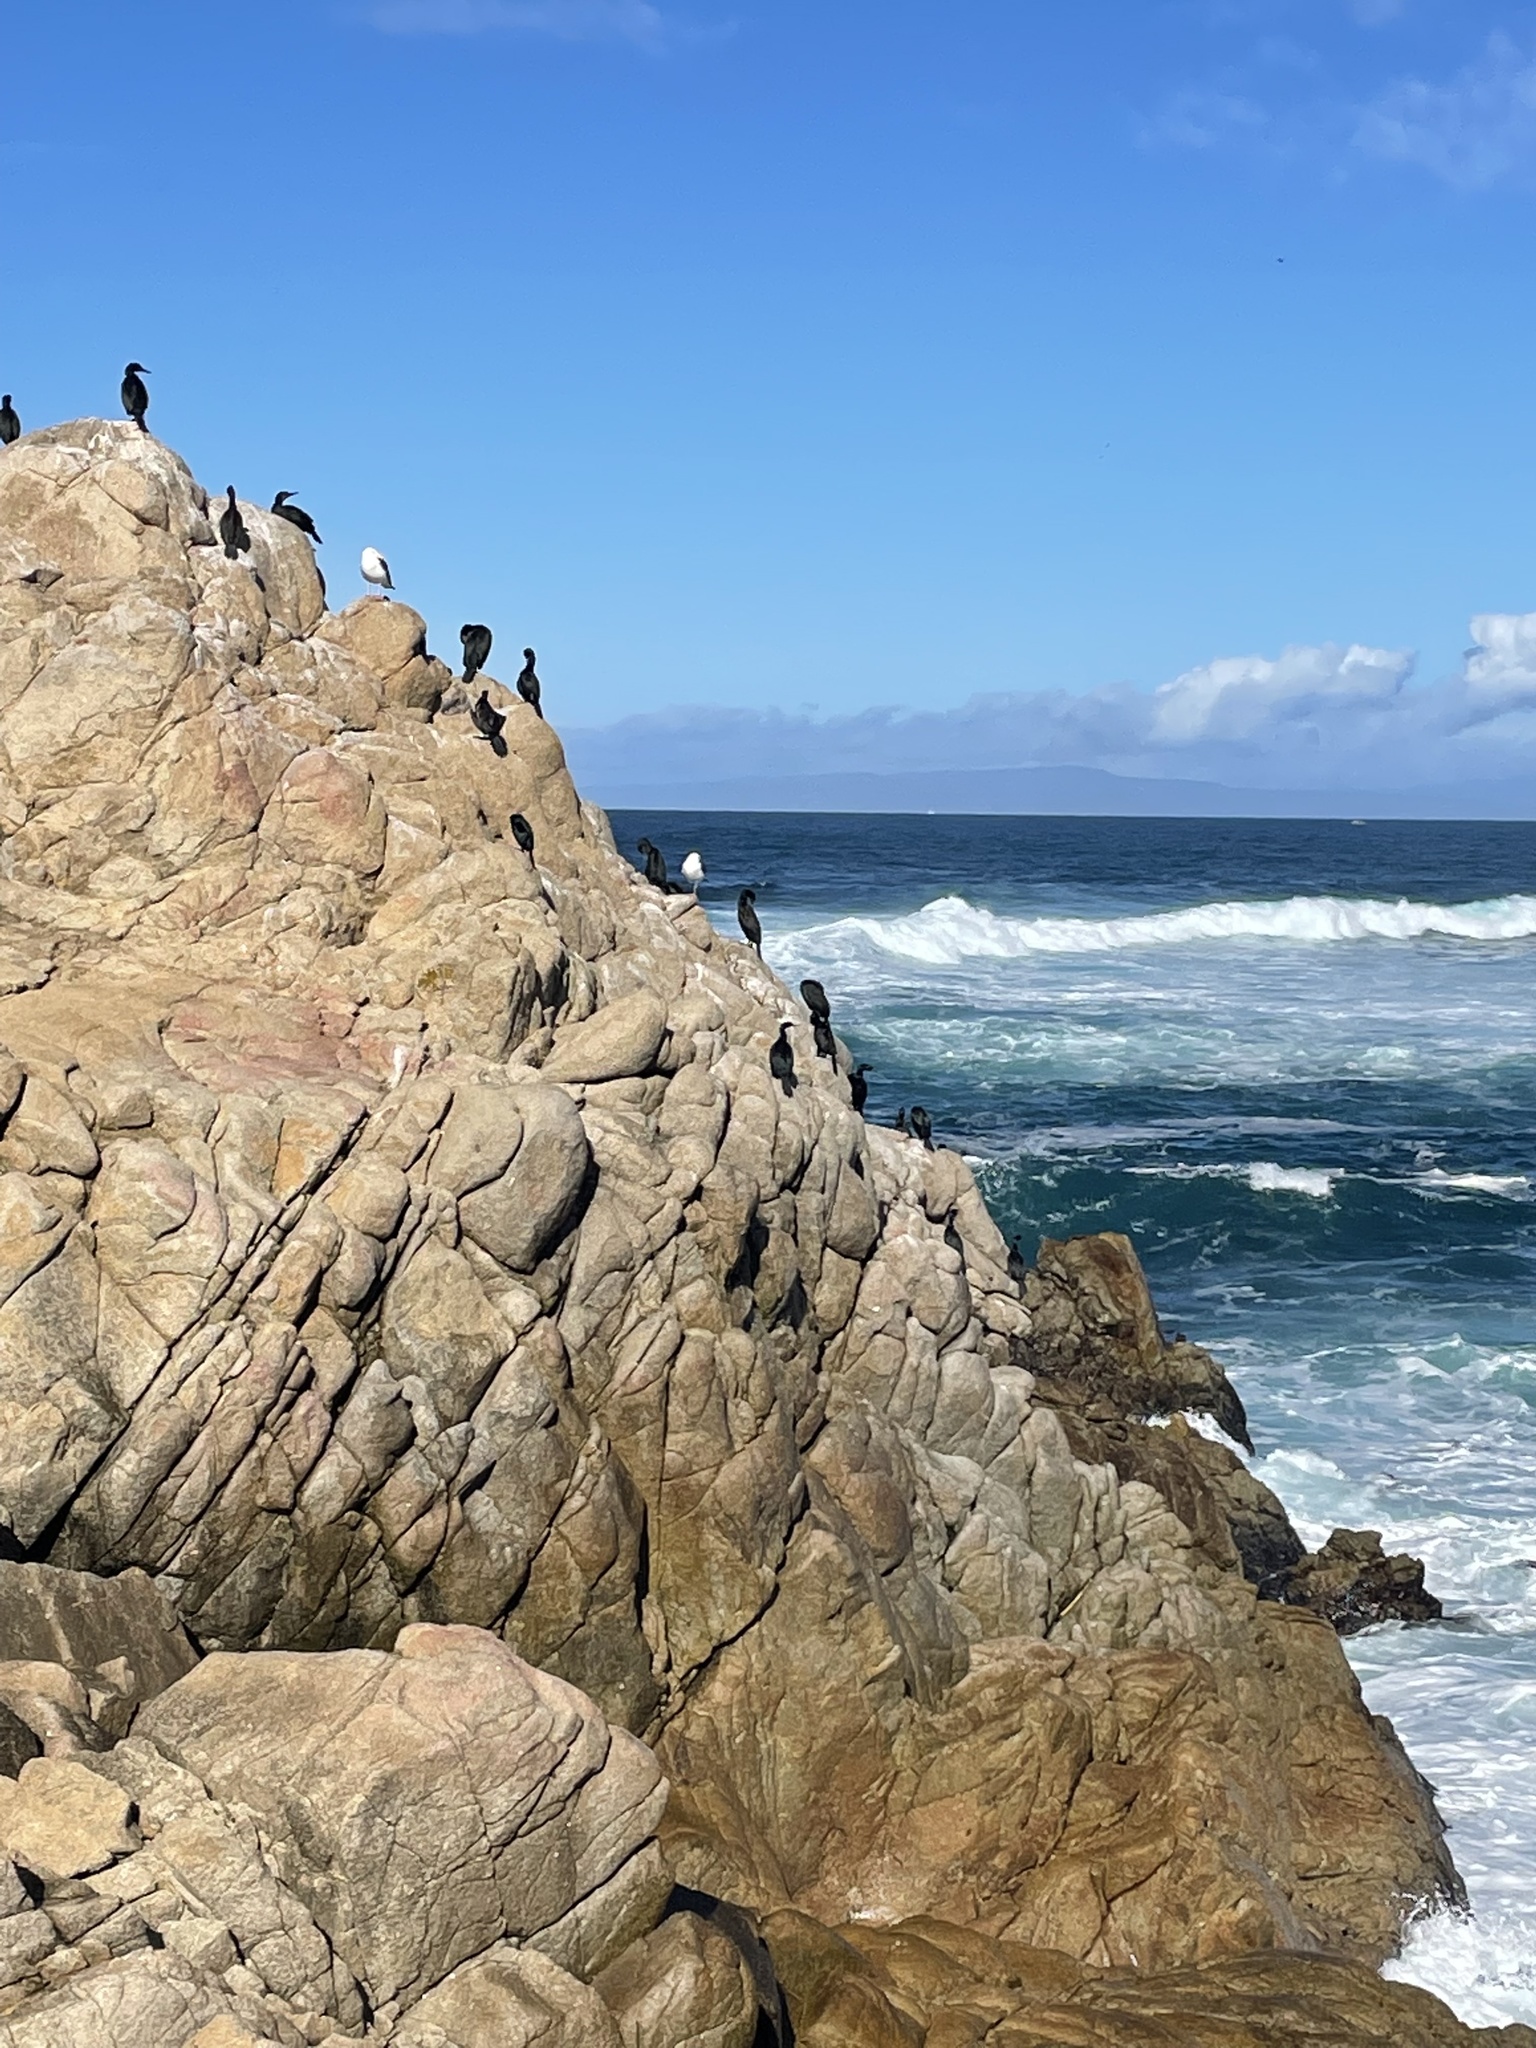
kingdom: Animalia
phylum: Chordata
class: Aves
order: Suliformes
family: Phalacrocoracidae
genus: Urile
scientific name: Urile penicillatus
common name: Brandt's cormorant
